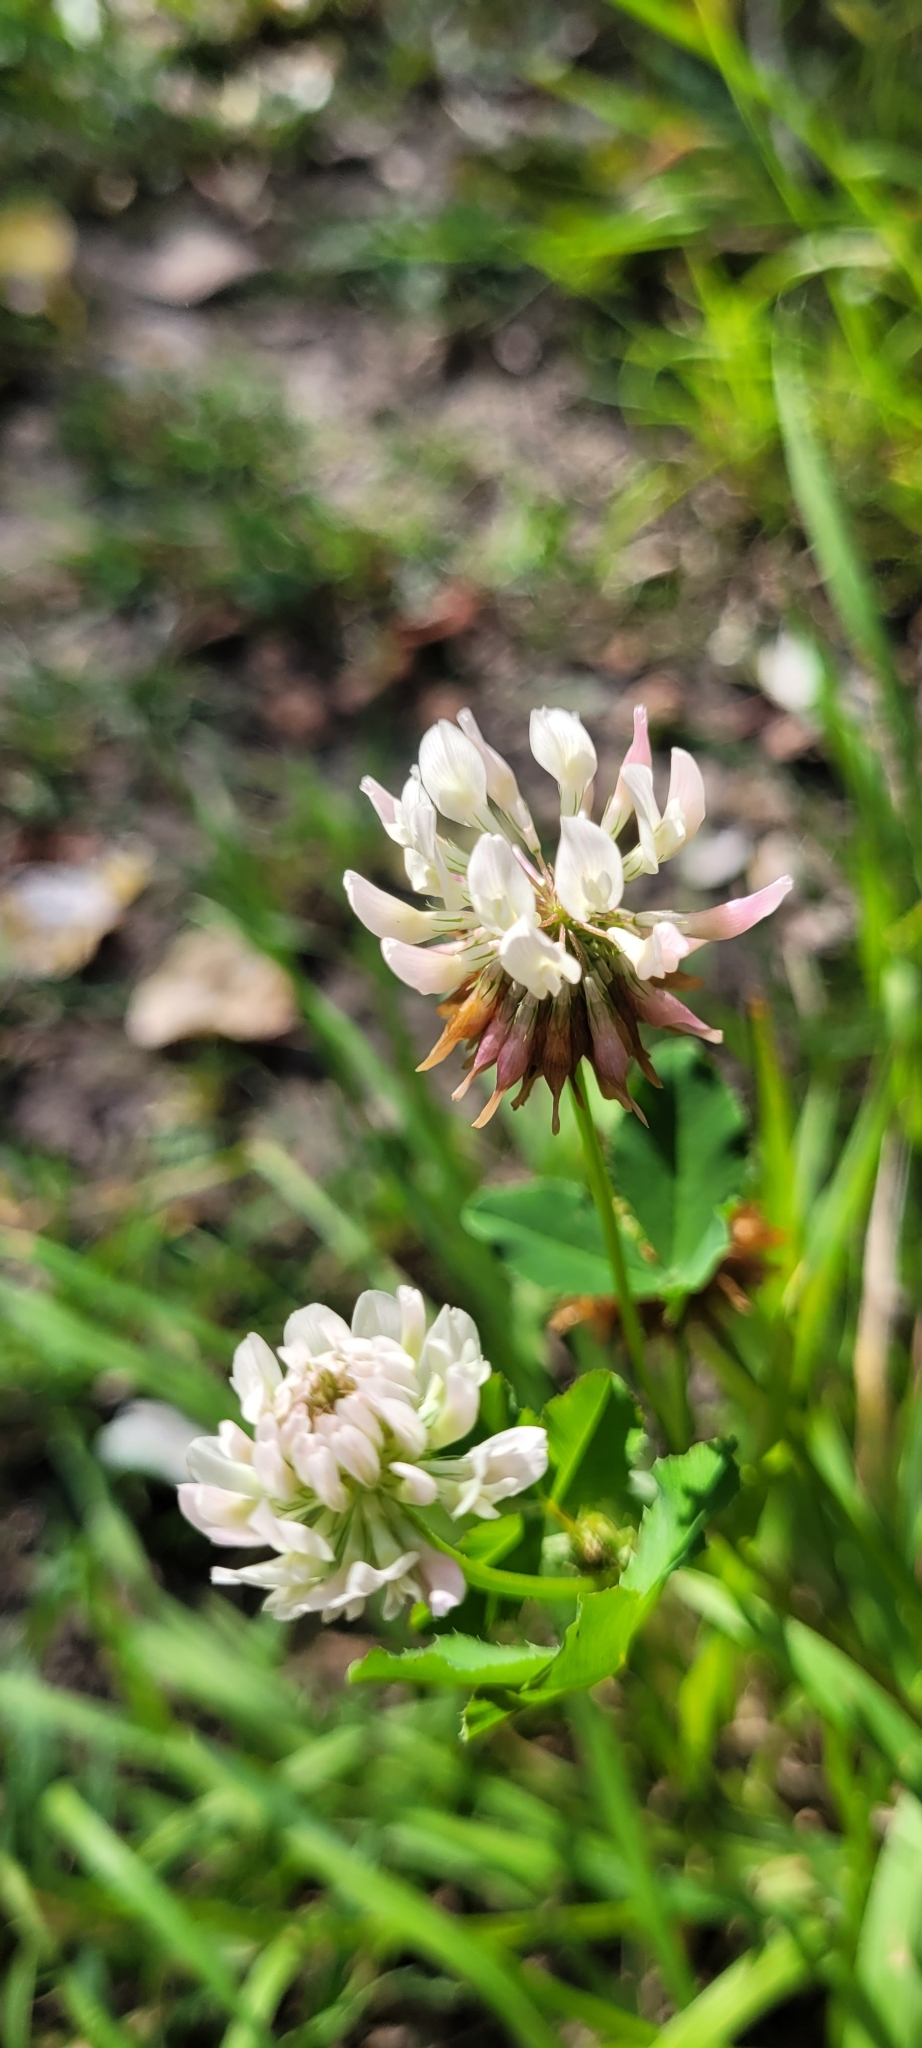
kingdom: Plantae
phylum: Tracheophyta
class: Magnoliopsida
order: Fabales
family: Fabaceae
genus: Trifolium
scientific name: Trifolium repens
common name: White clover
